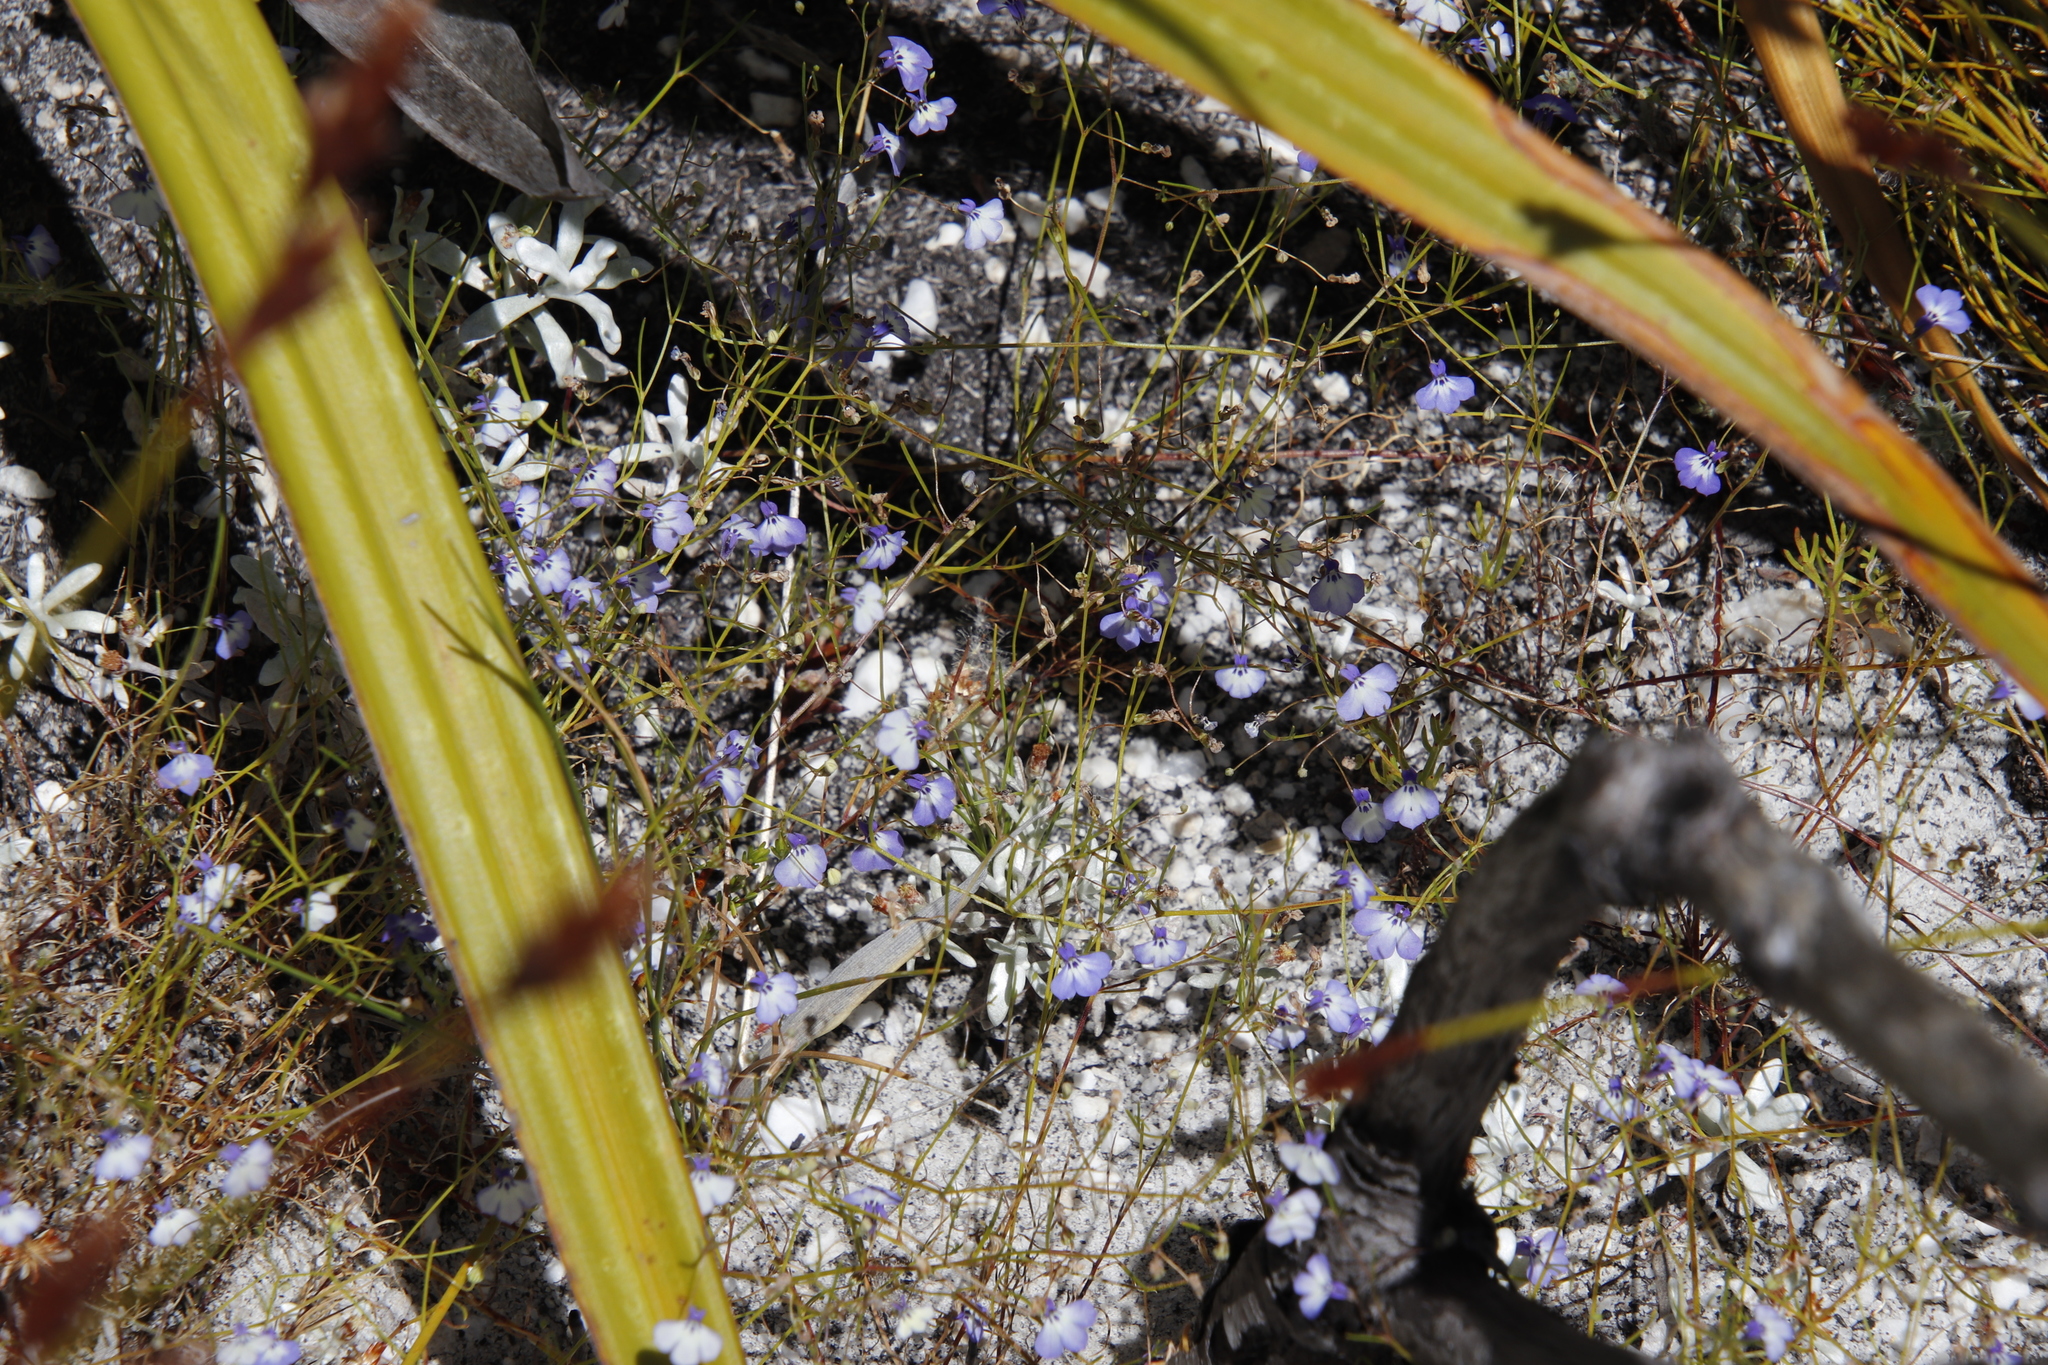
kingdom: Plantae
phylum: Tracheophyta
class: Magnoliopsida
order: Asterales
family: Campanulaceae
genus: Lobelia
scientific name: Lobelia setacea
